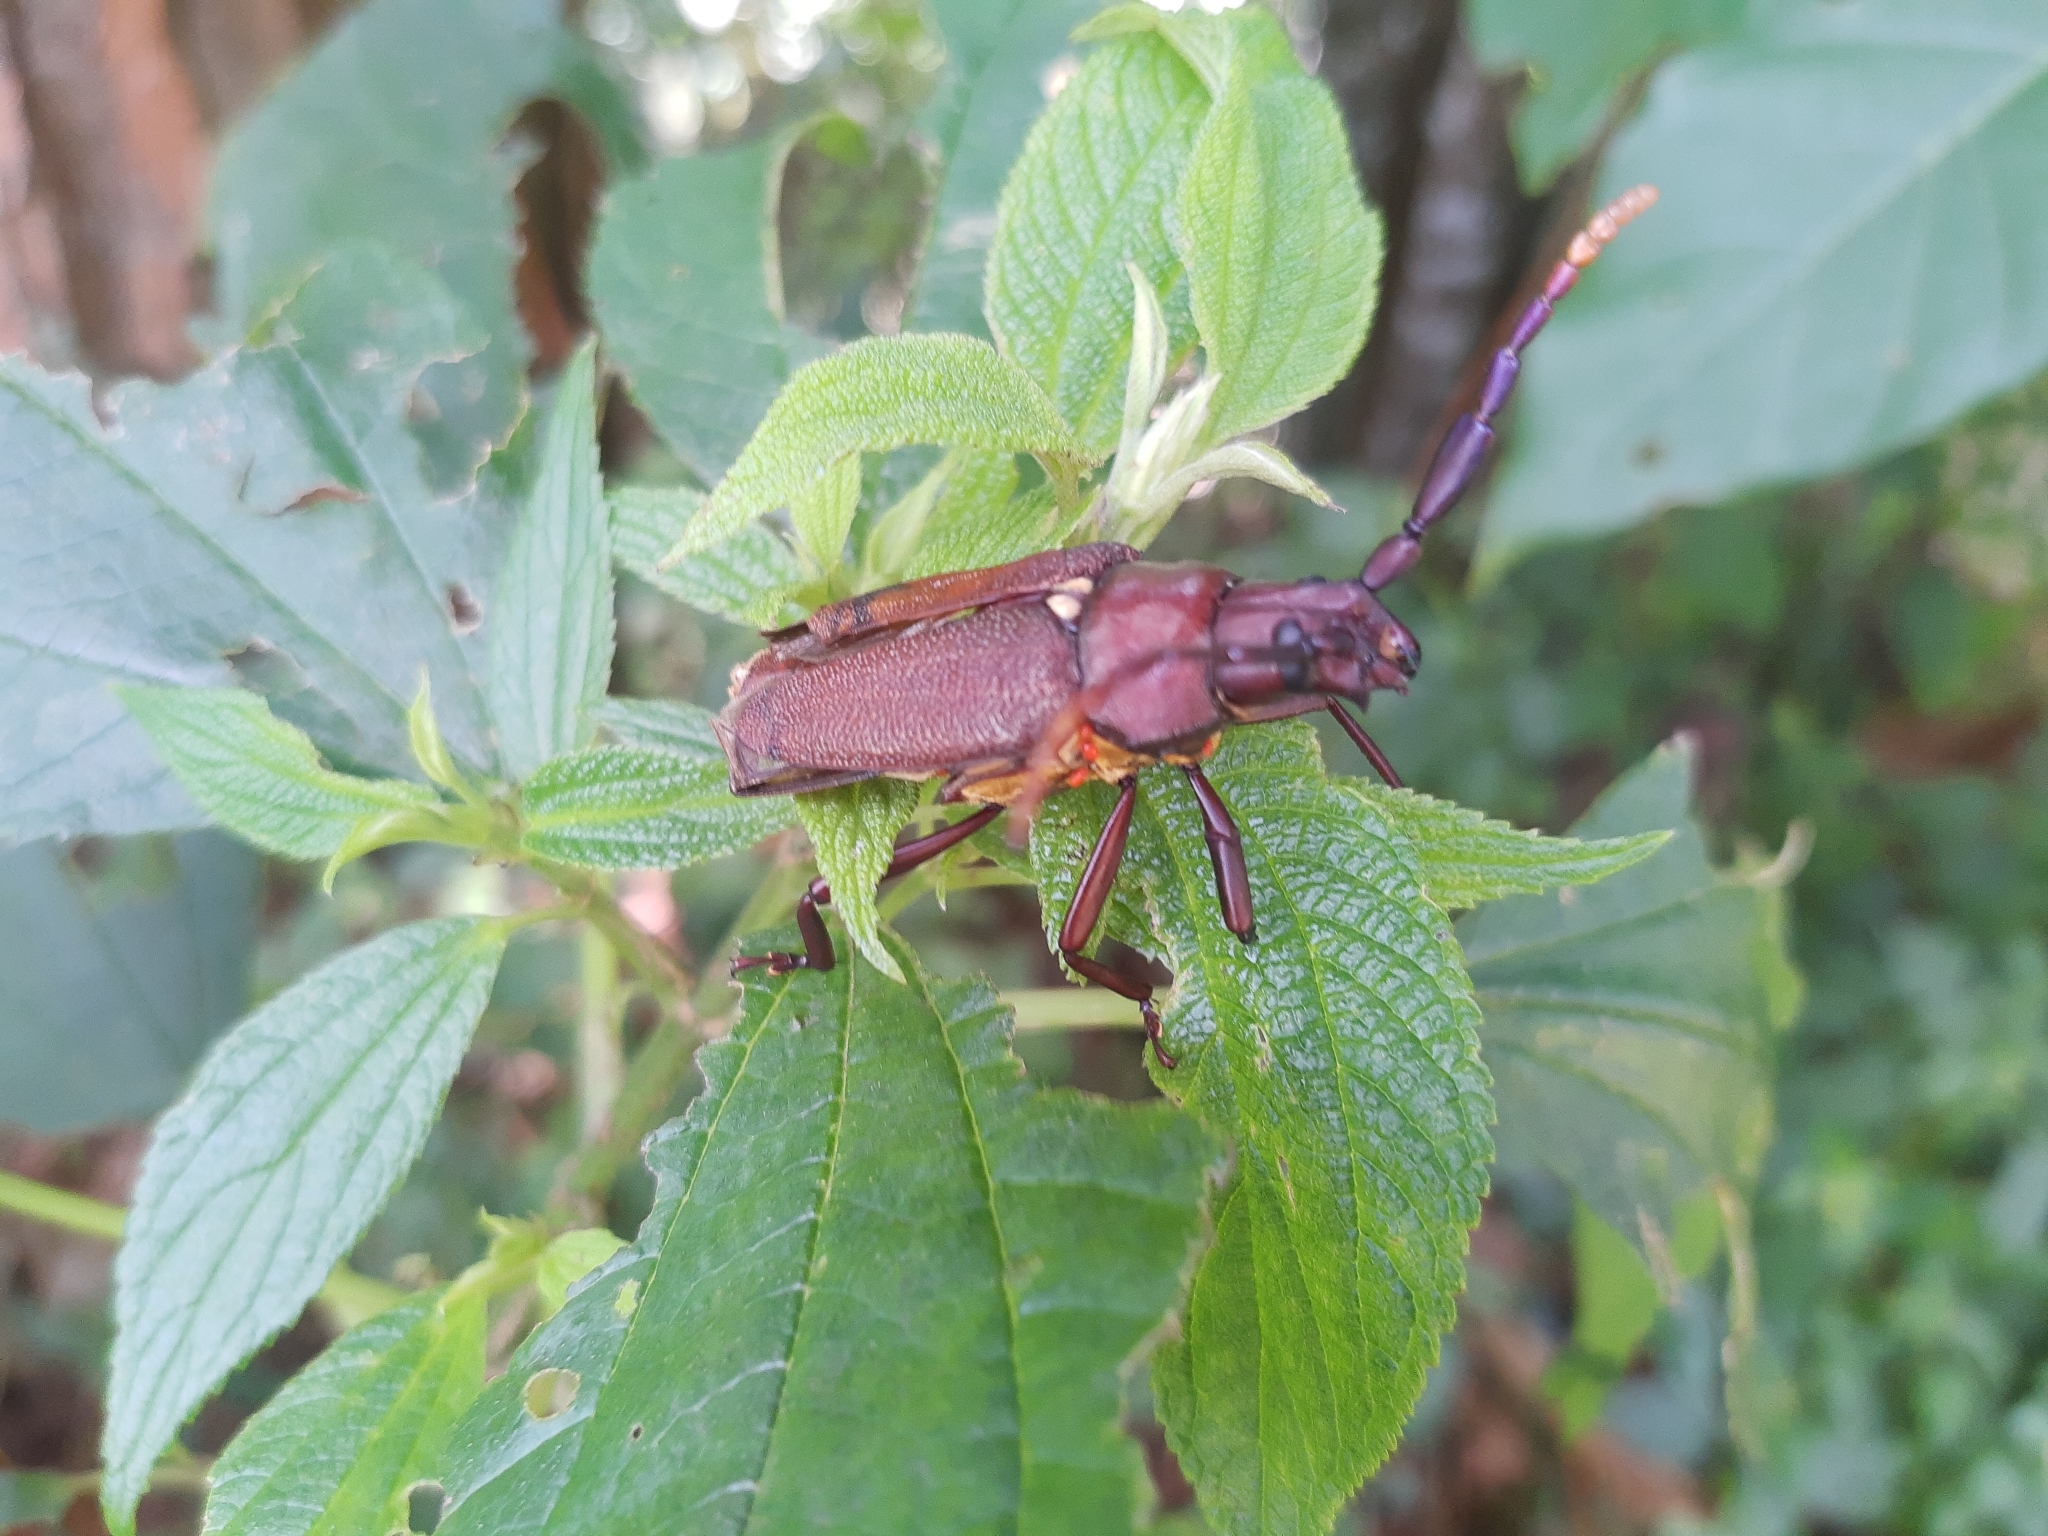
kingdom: Animalia
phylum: Arthropoda
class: Insecta
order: Coleoptera
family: Cerambycidae
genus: Praemallaspis
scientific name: Praemallaspis leucaspis
